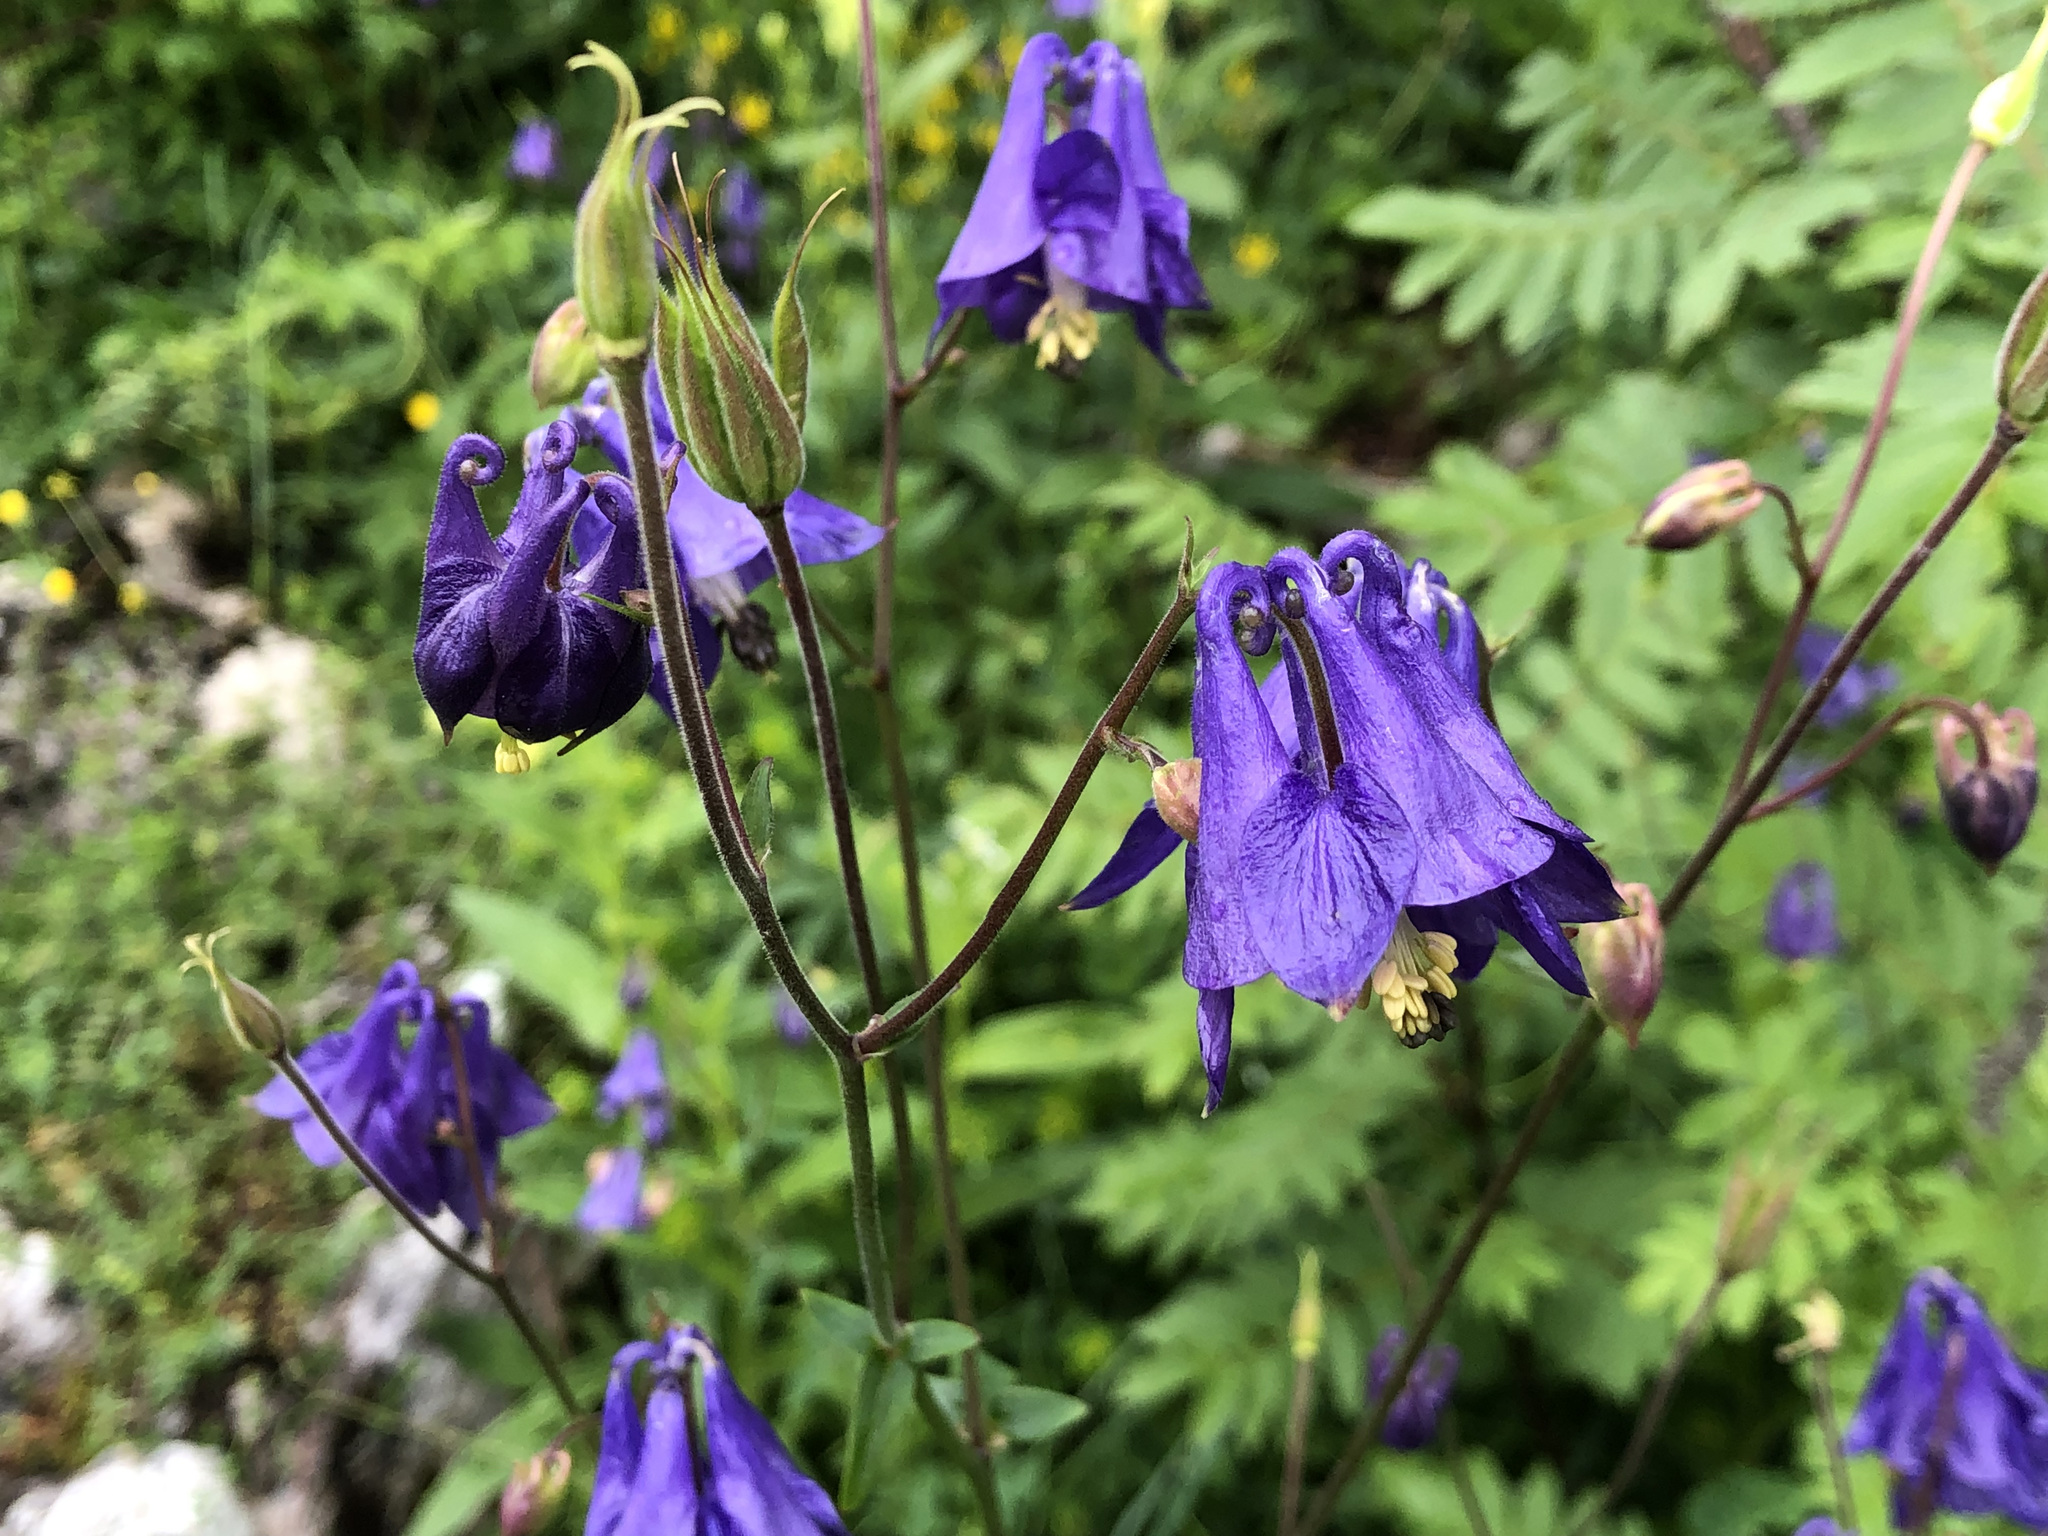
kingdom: Plantae
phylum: Tracheophyta
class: Magnoliopsida
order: Ranunculales
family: Ranunculaceae
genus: Aquilegia
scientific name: Aquilegia vulgaris
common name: Columbine
